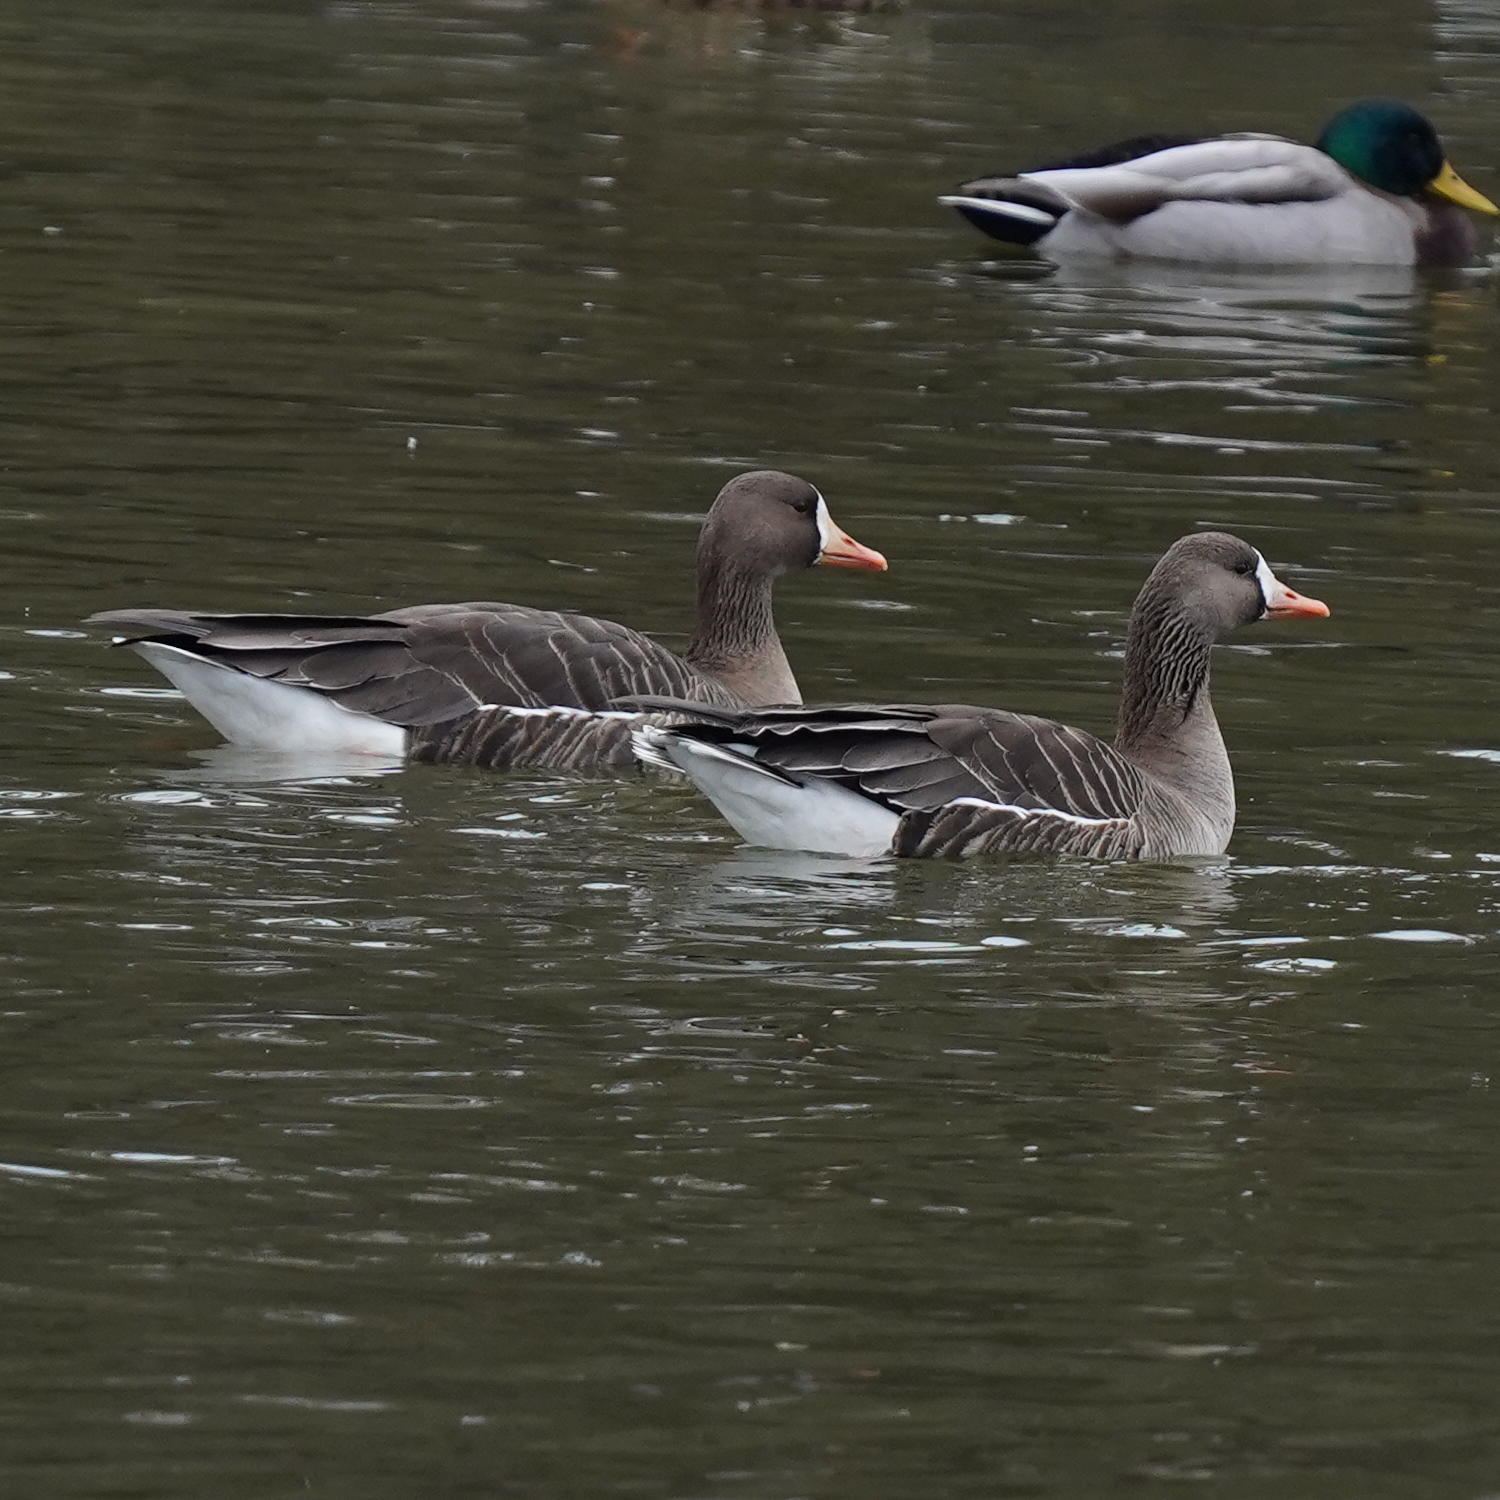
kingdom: Animalia
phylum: Chordata
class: Aves
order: Anseriformes
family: Anatidae
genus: Anser
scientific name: Anser albifrons
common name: Greater white-fronted goose
